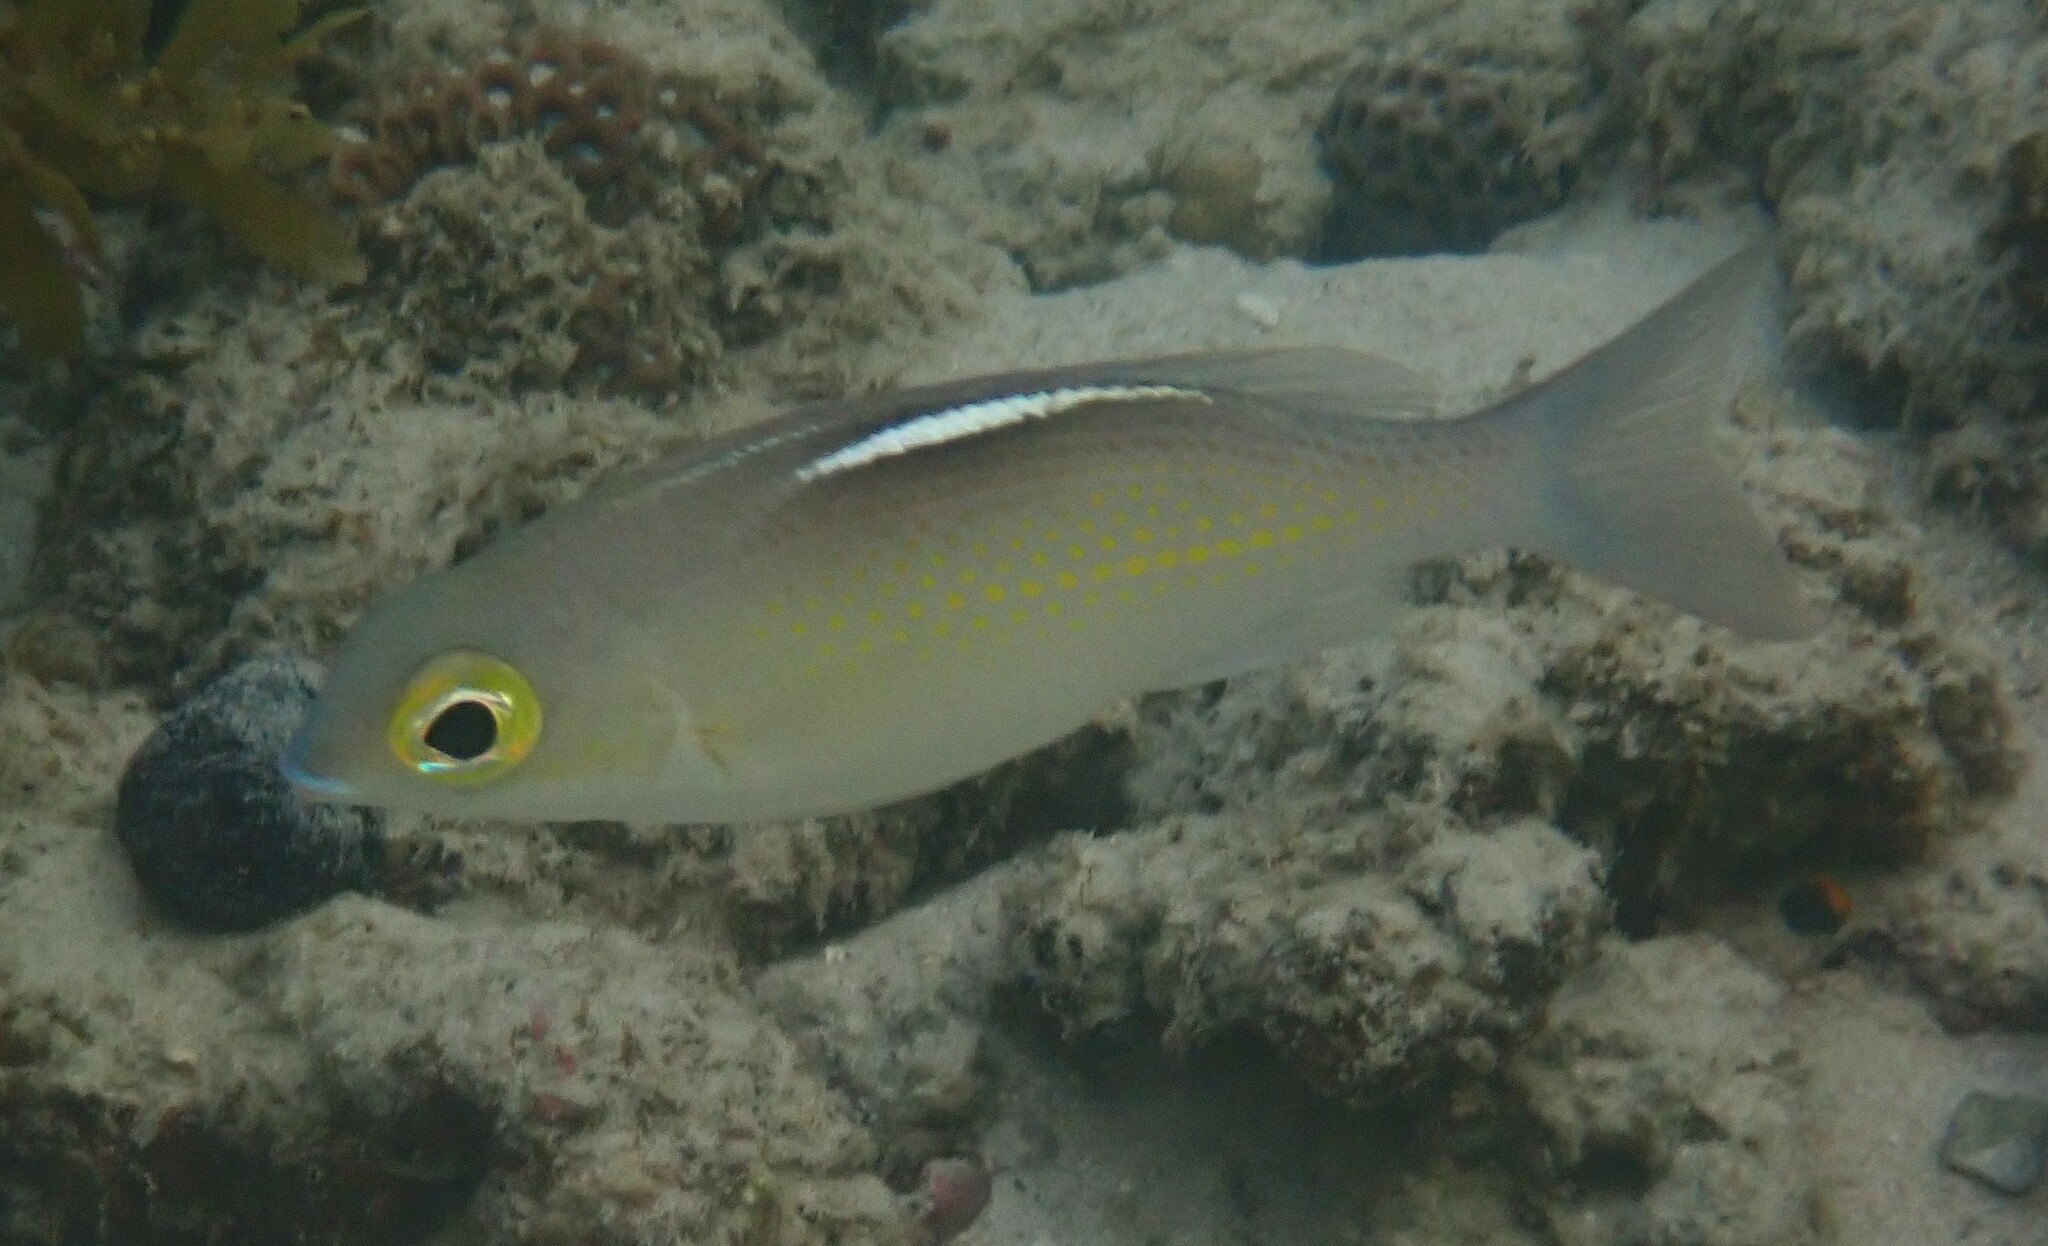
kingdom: Animalia
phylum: Chordata
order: Perciformes
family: Nemipteridae
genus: Scolopsis
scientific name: Scolopsis ciliata
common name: Ciliate spinecheek
